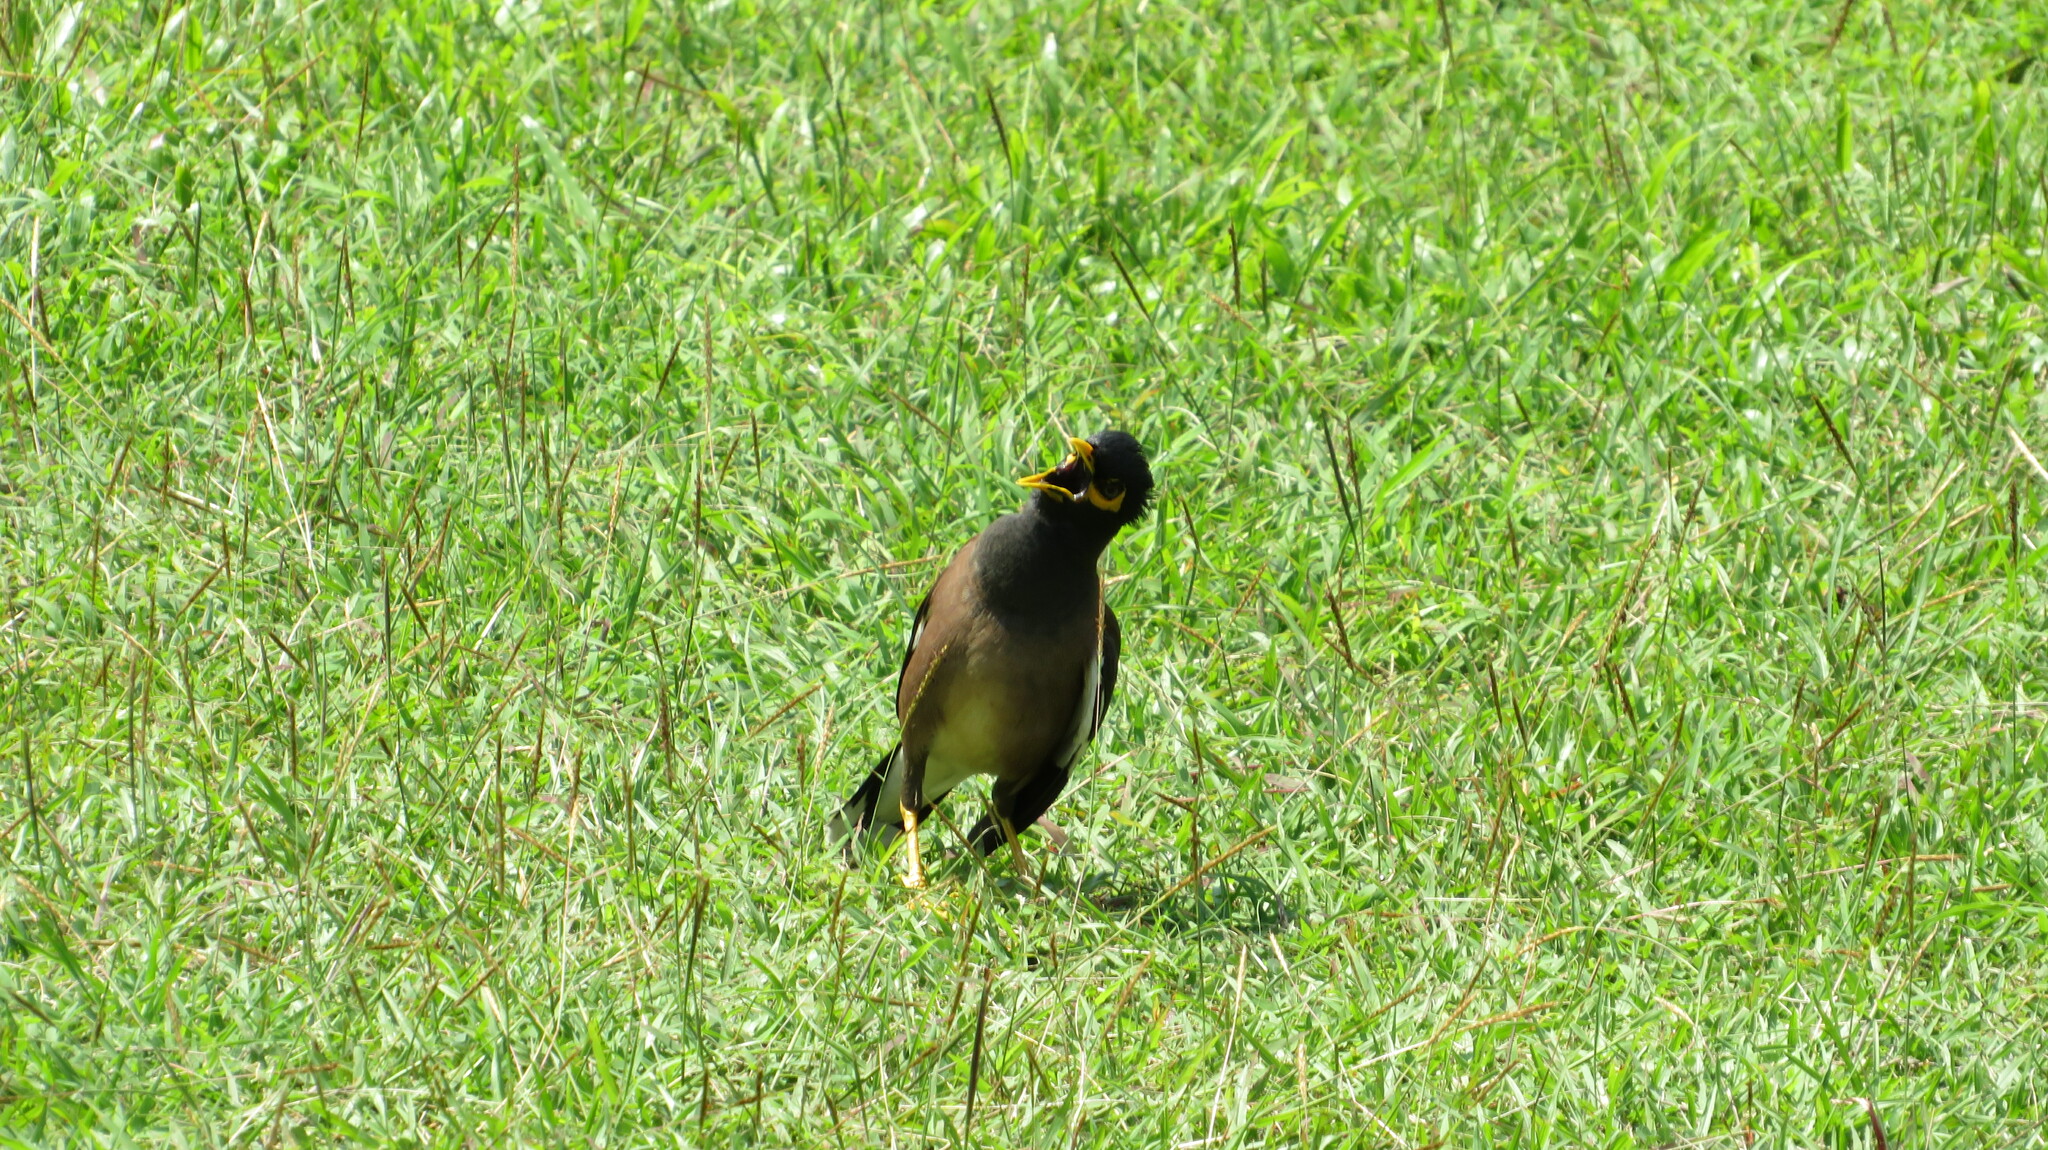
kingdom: Animalia
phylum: Chordata
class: Aves
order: Passeriformes
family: Sturnidae
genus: Acridotheres
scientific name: Acridotheres tristis
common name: Common myna
